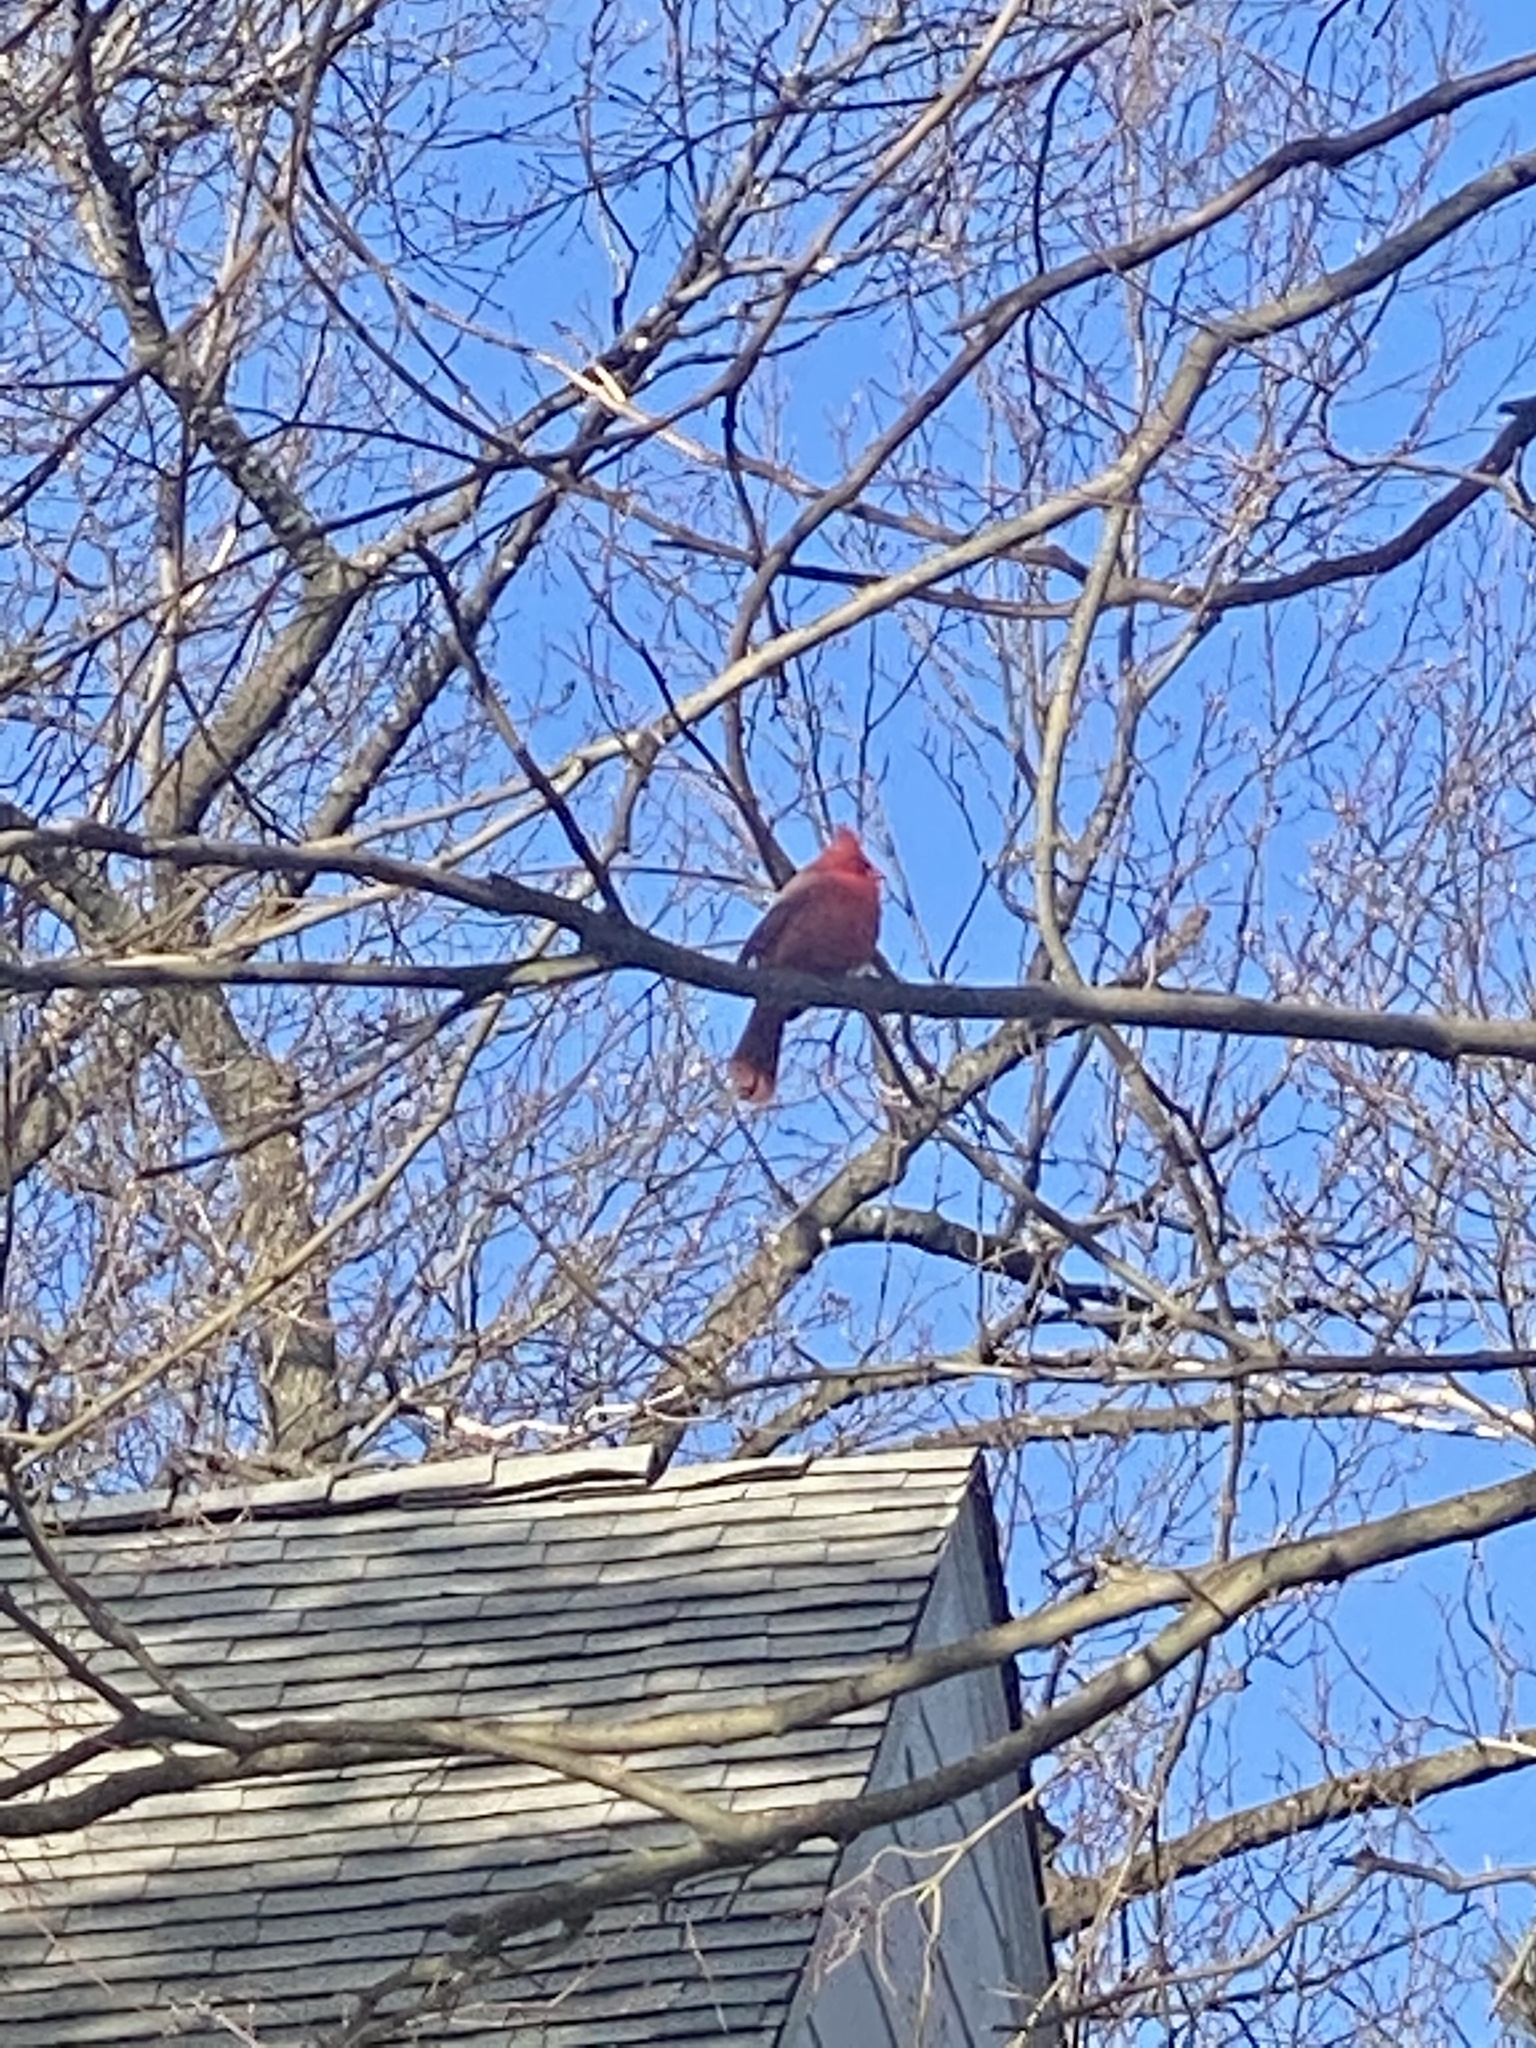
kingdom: Animalia
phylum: Chordata
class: Aves
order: Passeriformes
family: Cardinalidae
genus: Cardinalis
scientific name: Cardinalis cardinalis
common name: Northern cardinal
